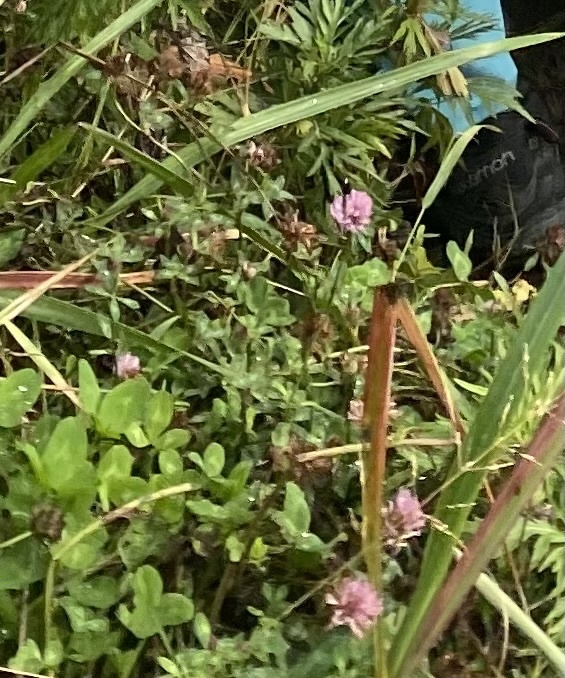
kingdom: Plantae
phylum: Tracheophyta
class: Magnoliopsida
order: Fabales
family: Fabaceae
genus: Trifolium
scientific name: Trifolium pratense
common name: Red clover
